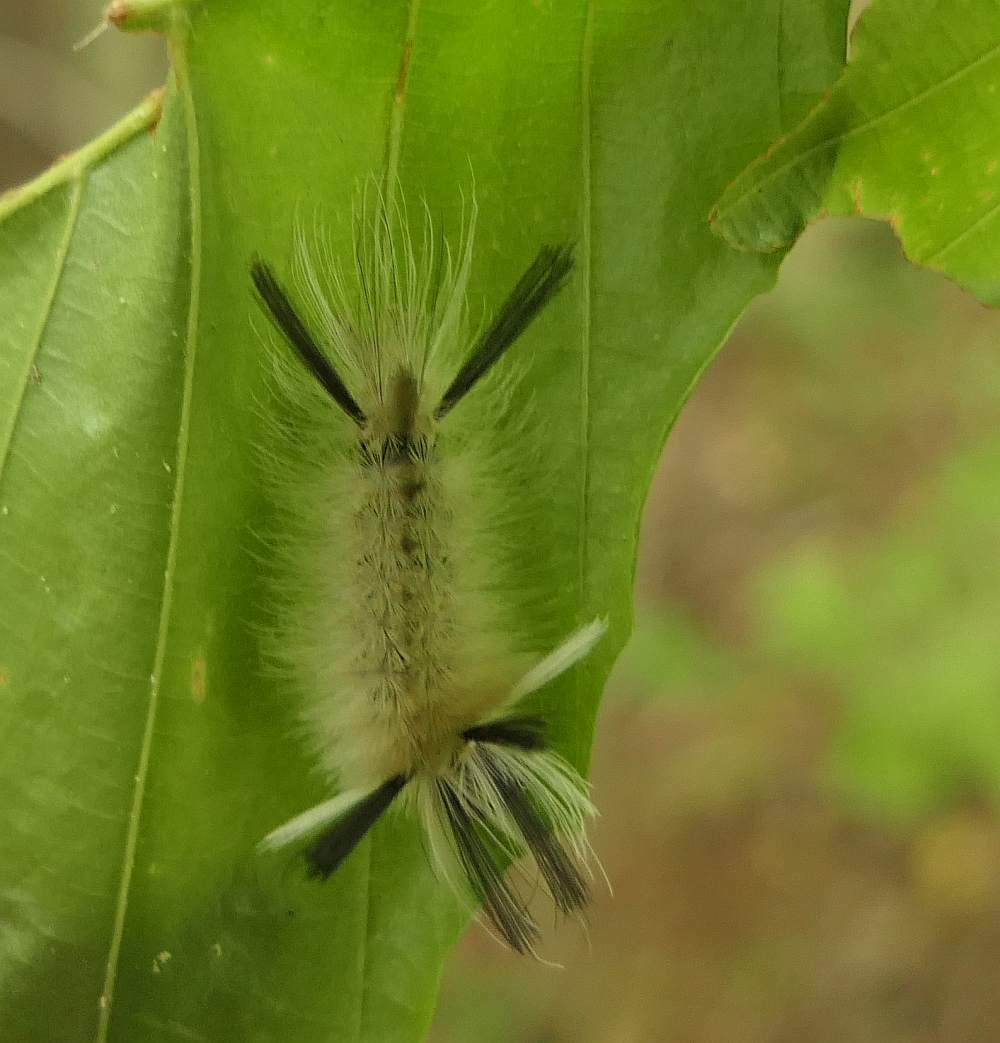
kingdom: Animalia
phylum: Arthropoda
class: Insecta
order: Lepidoptera
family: Erebidae
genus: Halysidota
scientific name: Halysidota tessellaris
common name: Banded tussock moth
